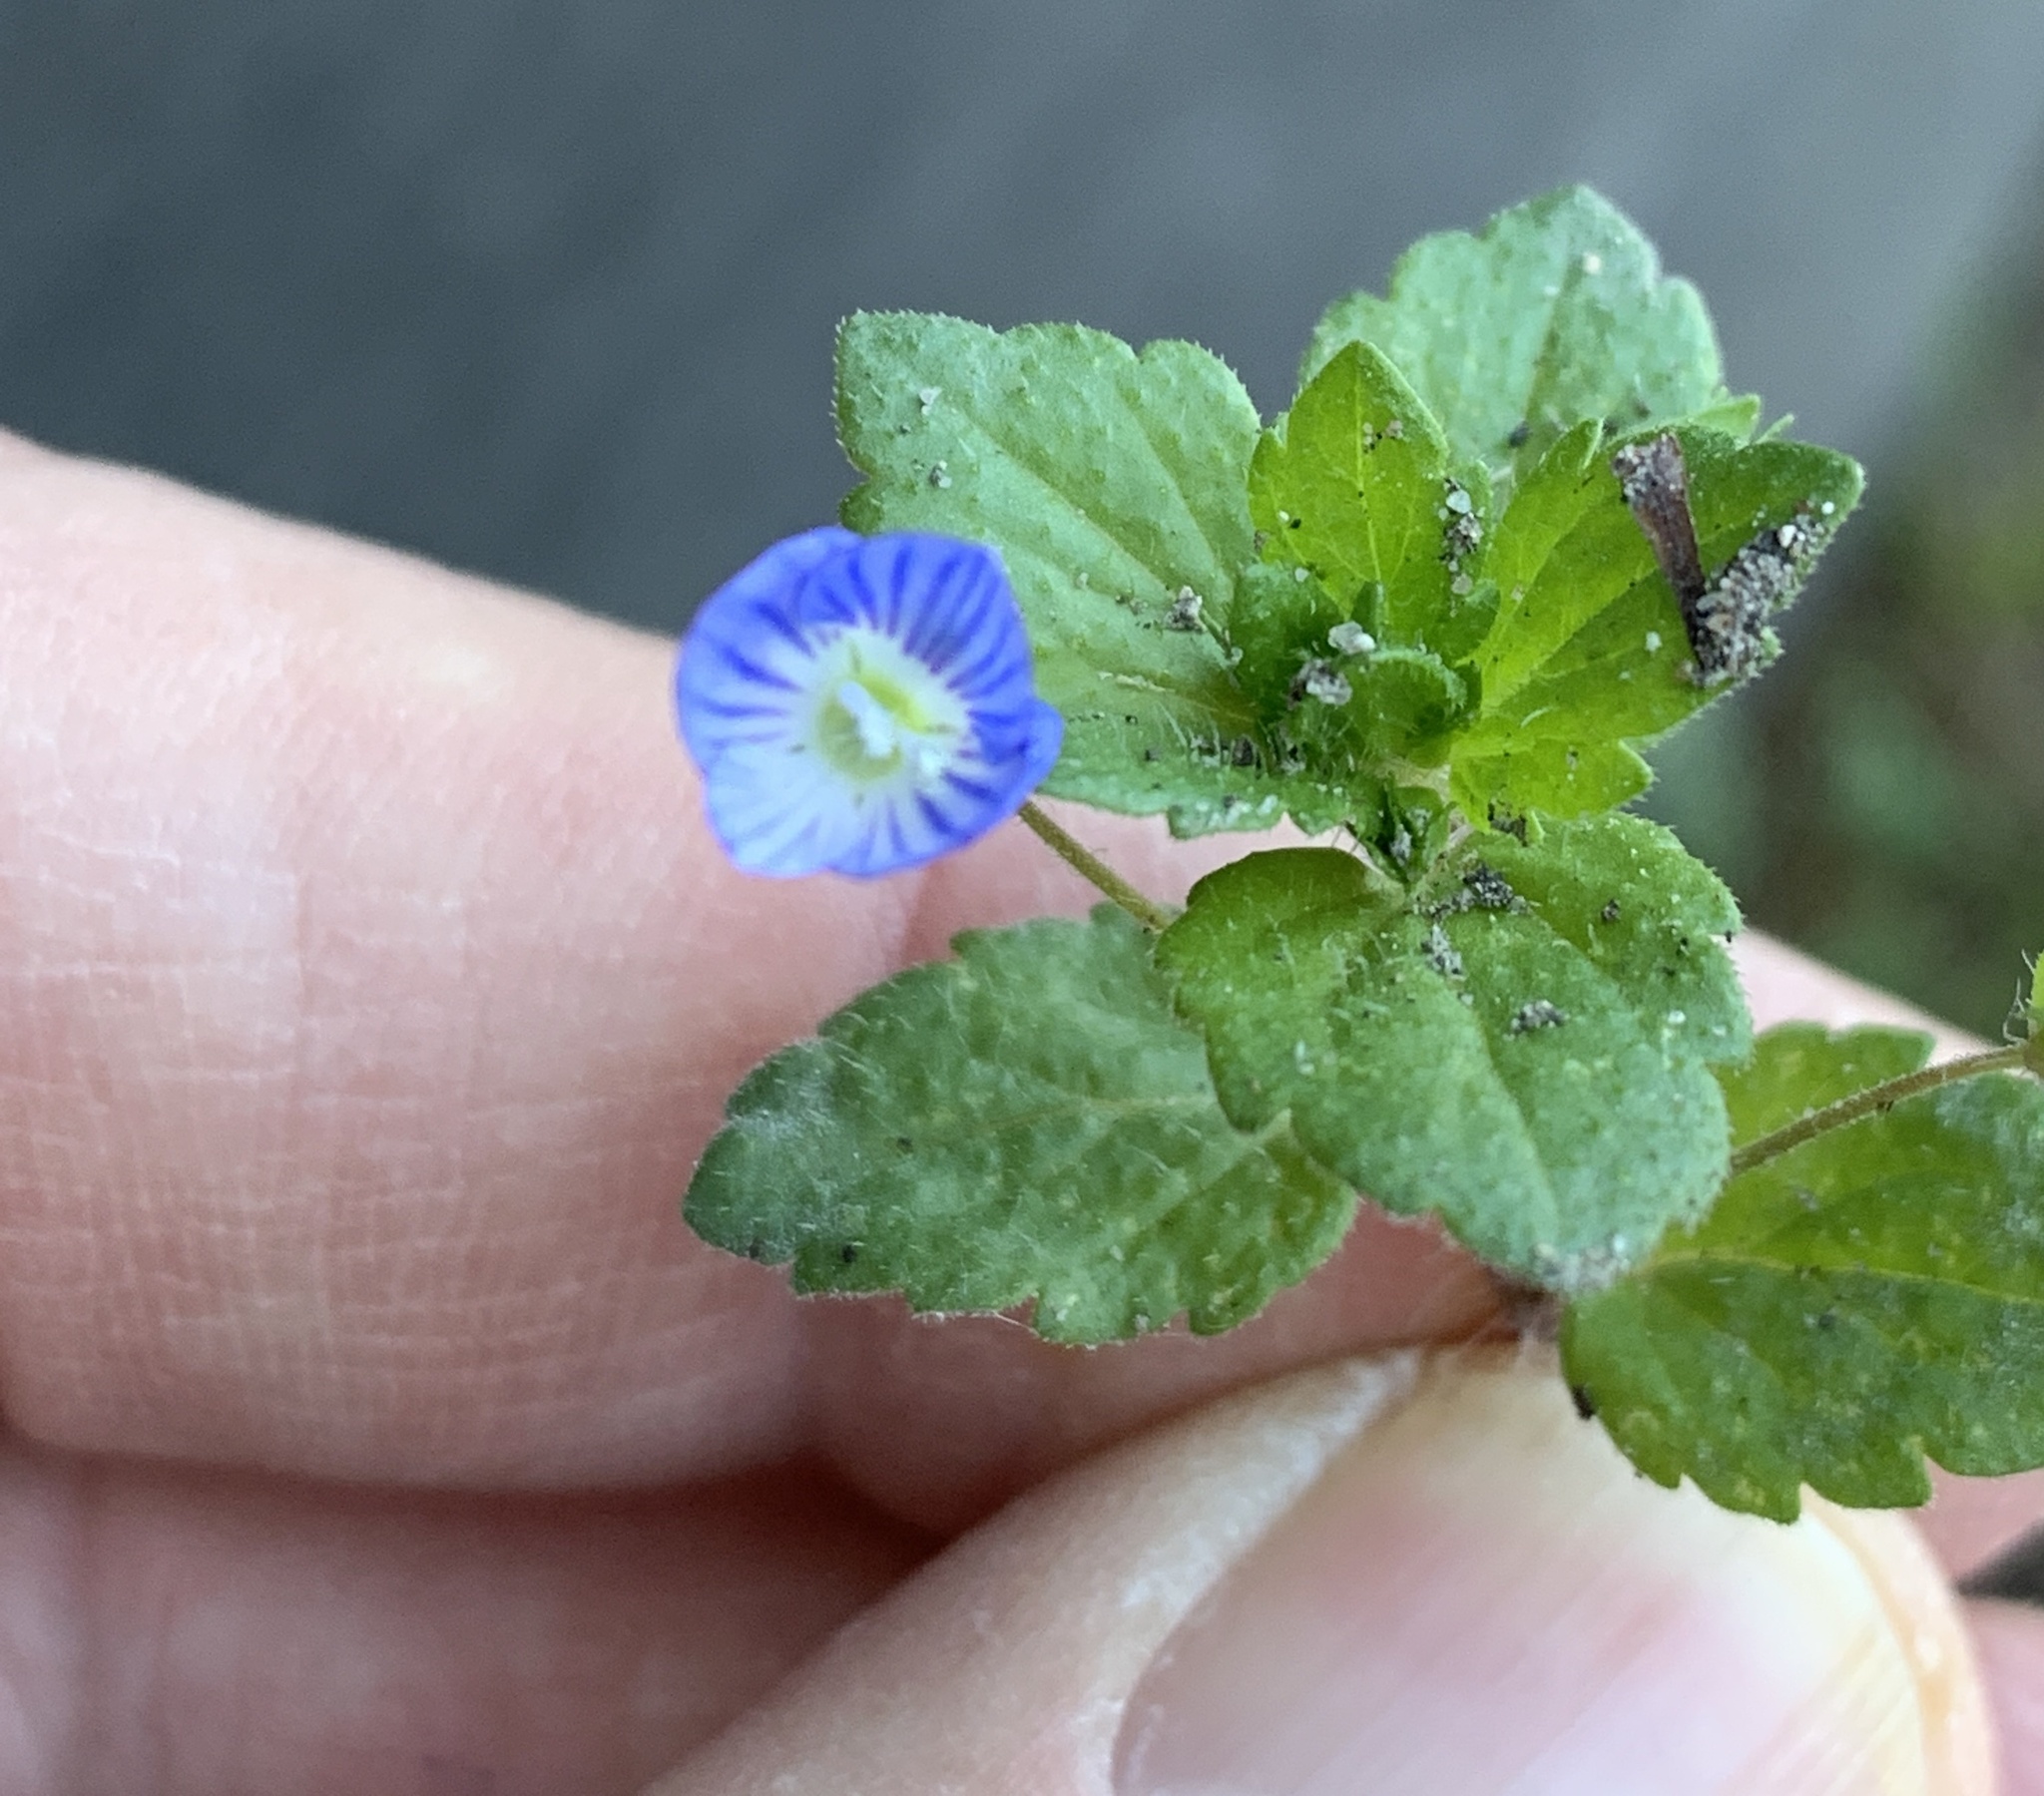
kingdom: Plantae
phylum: Tracheophyta
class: Magnoliopsida
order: Lamiales
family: Plantaginaceae
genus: Veronica
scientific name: Veronica persica
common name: Common field-speedwell
